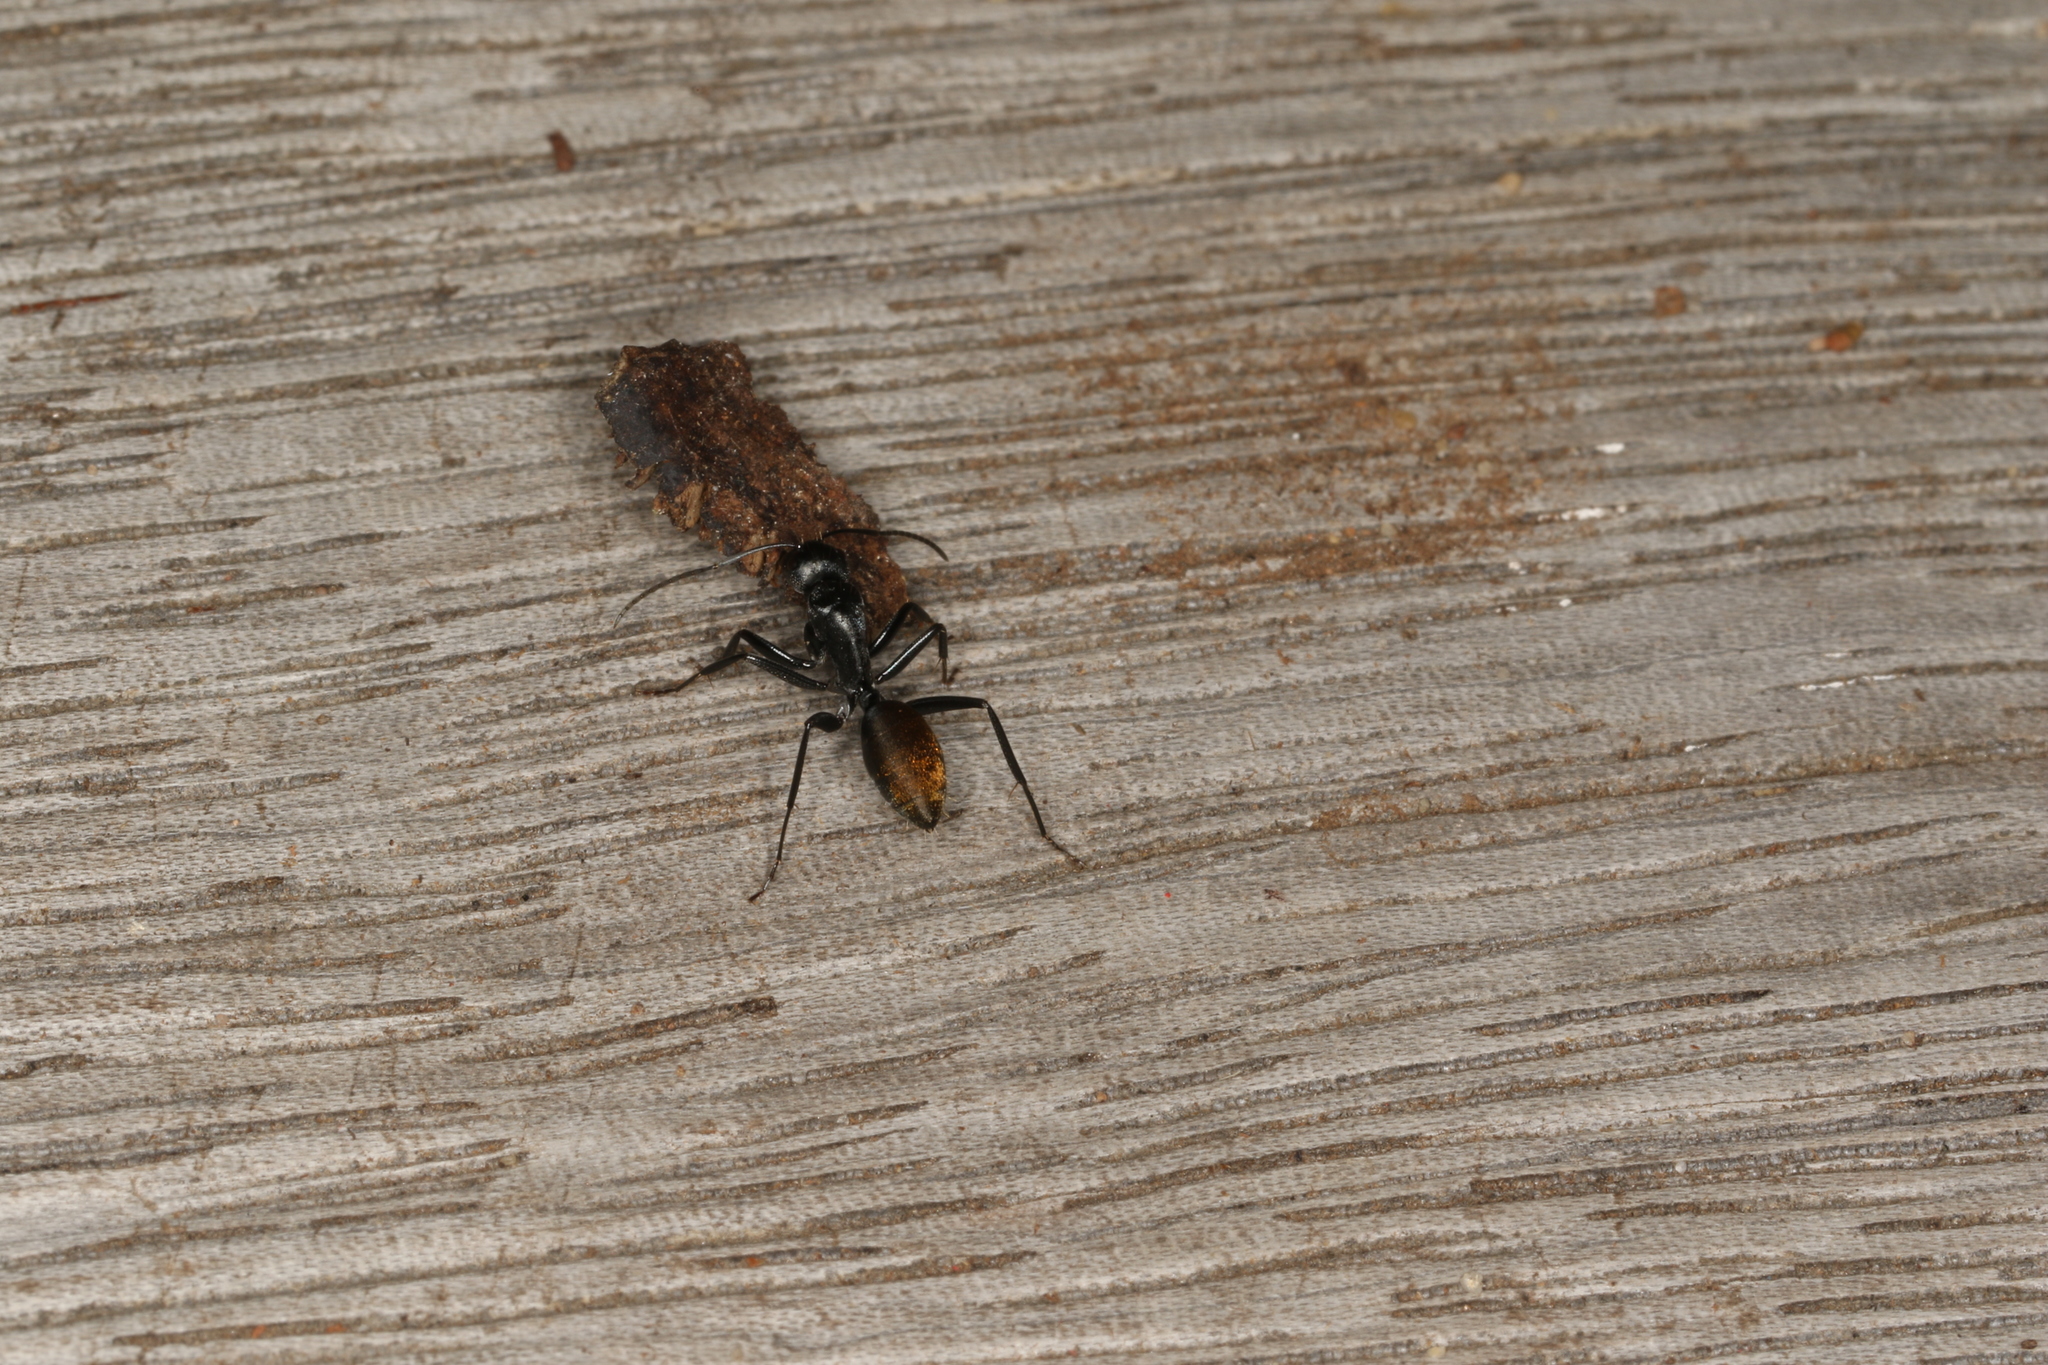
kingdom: Animalia
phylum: Arthropoda
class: Insecta
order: Hymenoptera
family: Formicidae
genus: Camponotus
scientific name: Camponotus aeneopilosus
